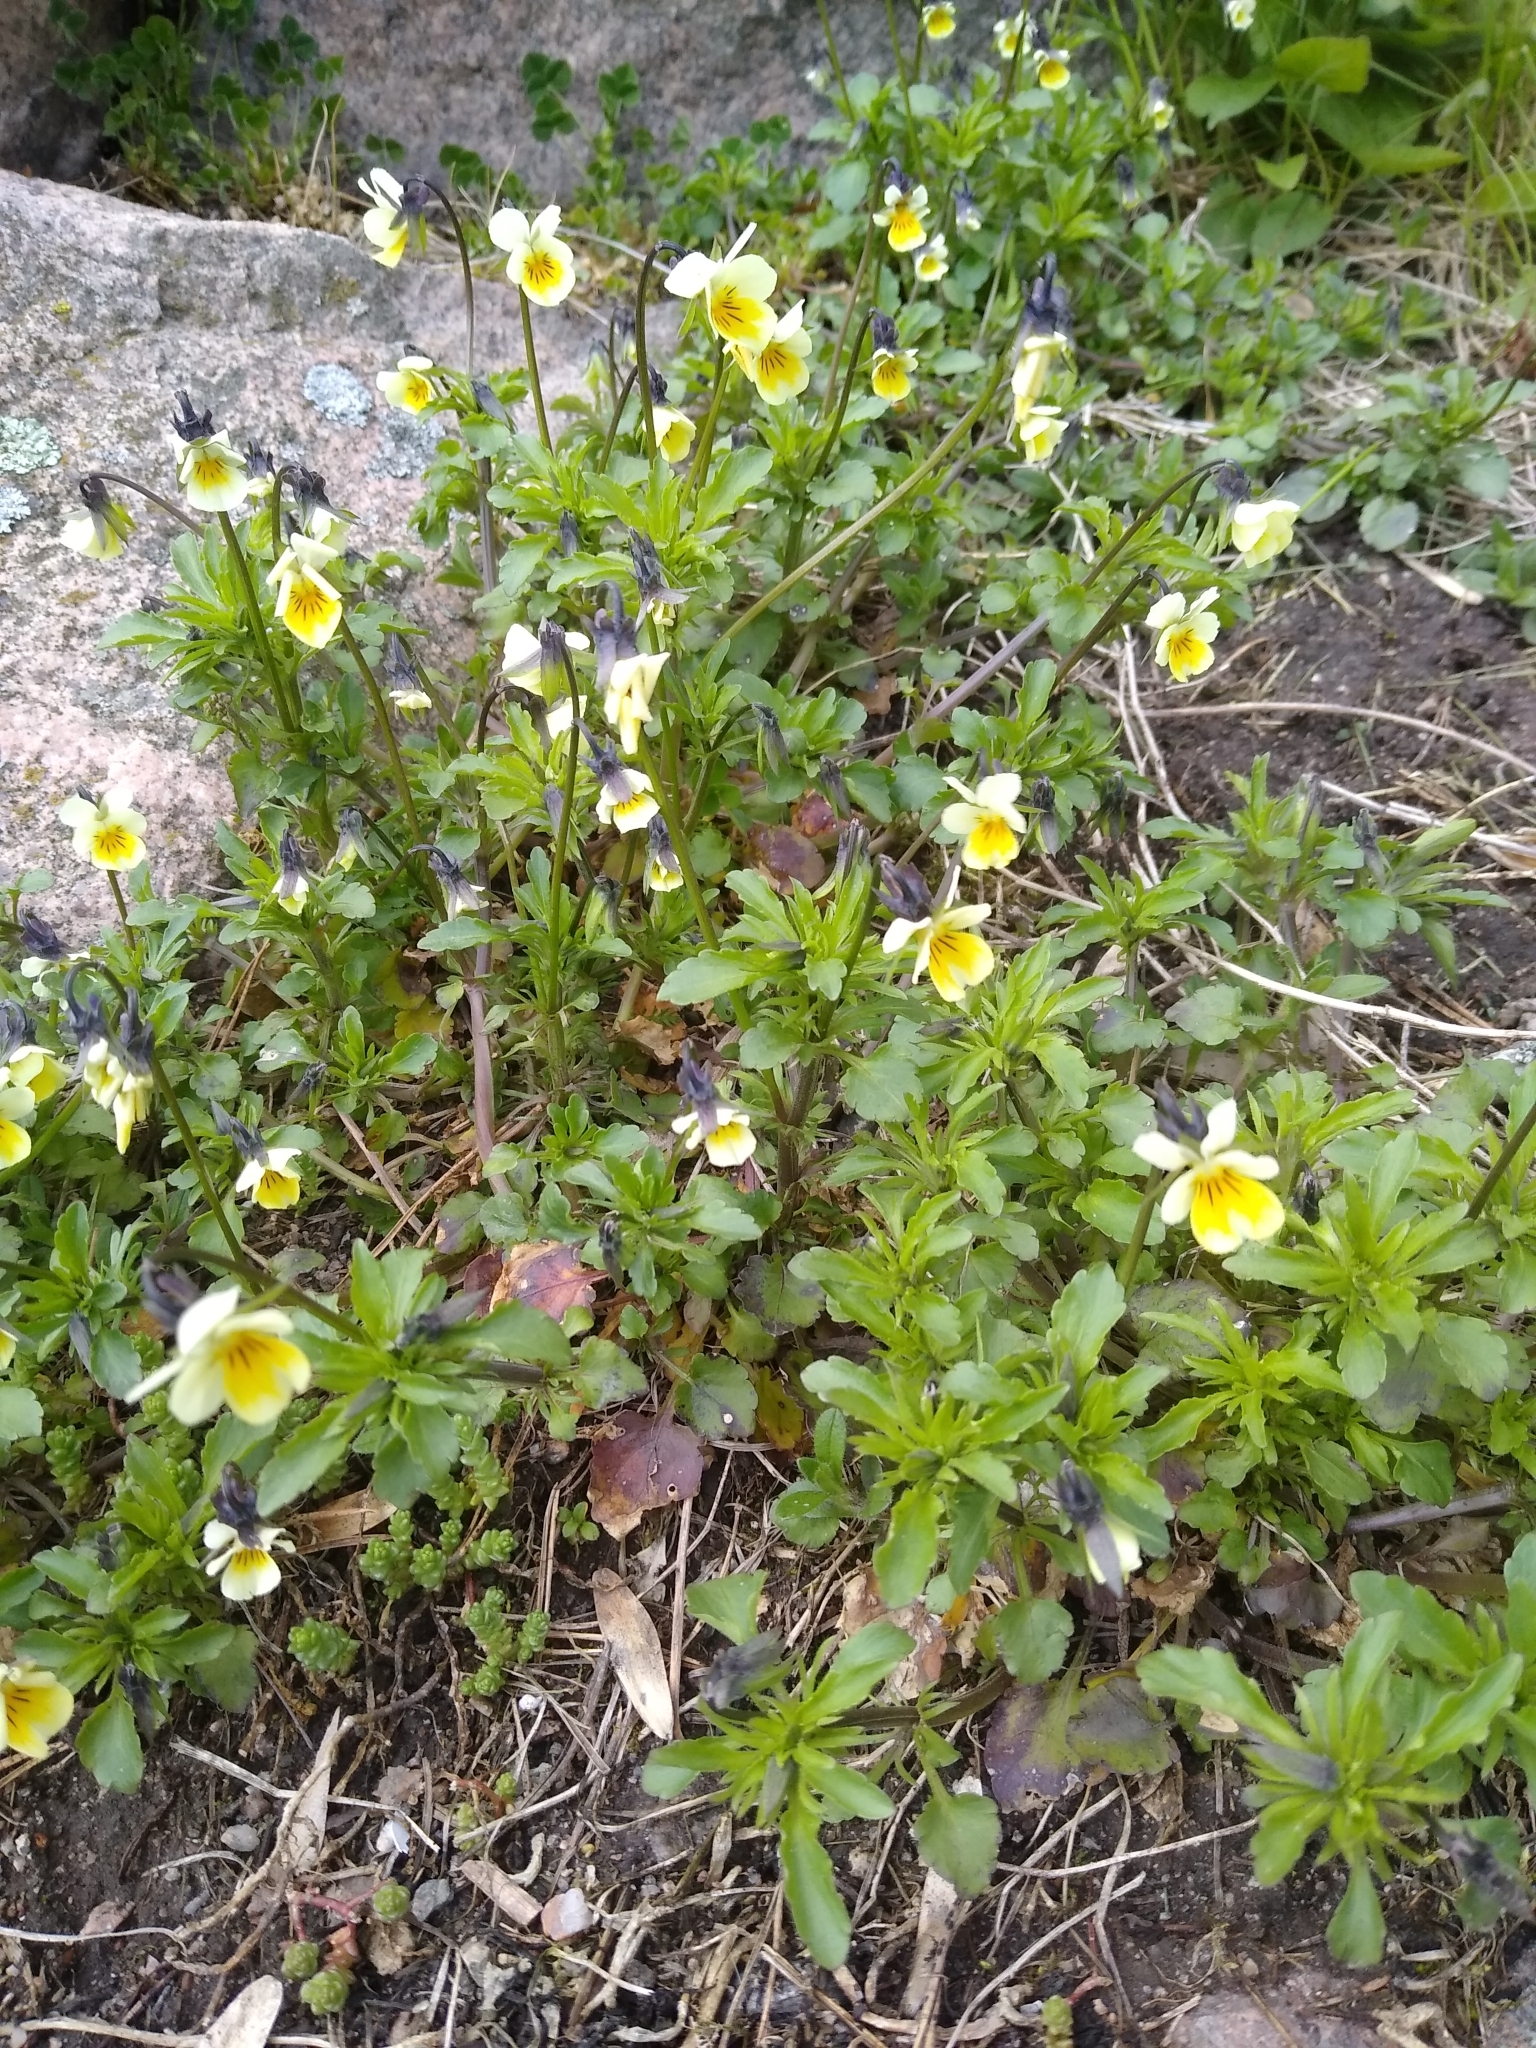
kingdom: Plantae
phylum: Tracheophyta
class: Magnoliopsida
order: Malpighiales
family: Violaceae
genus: Viola
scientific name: Viola arvensis
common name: Field pansy
